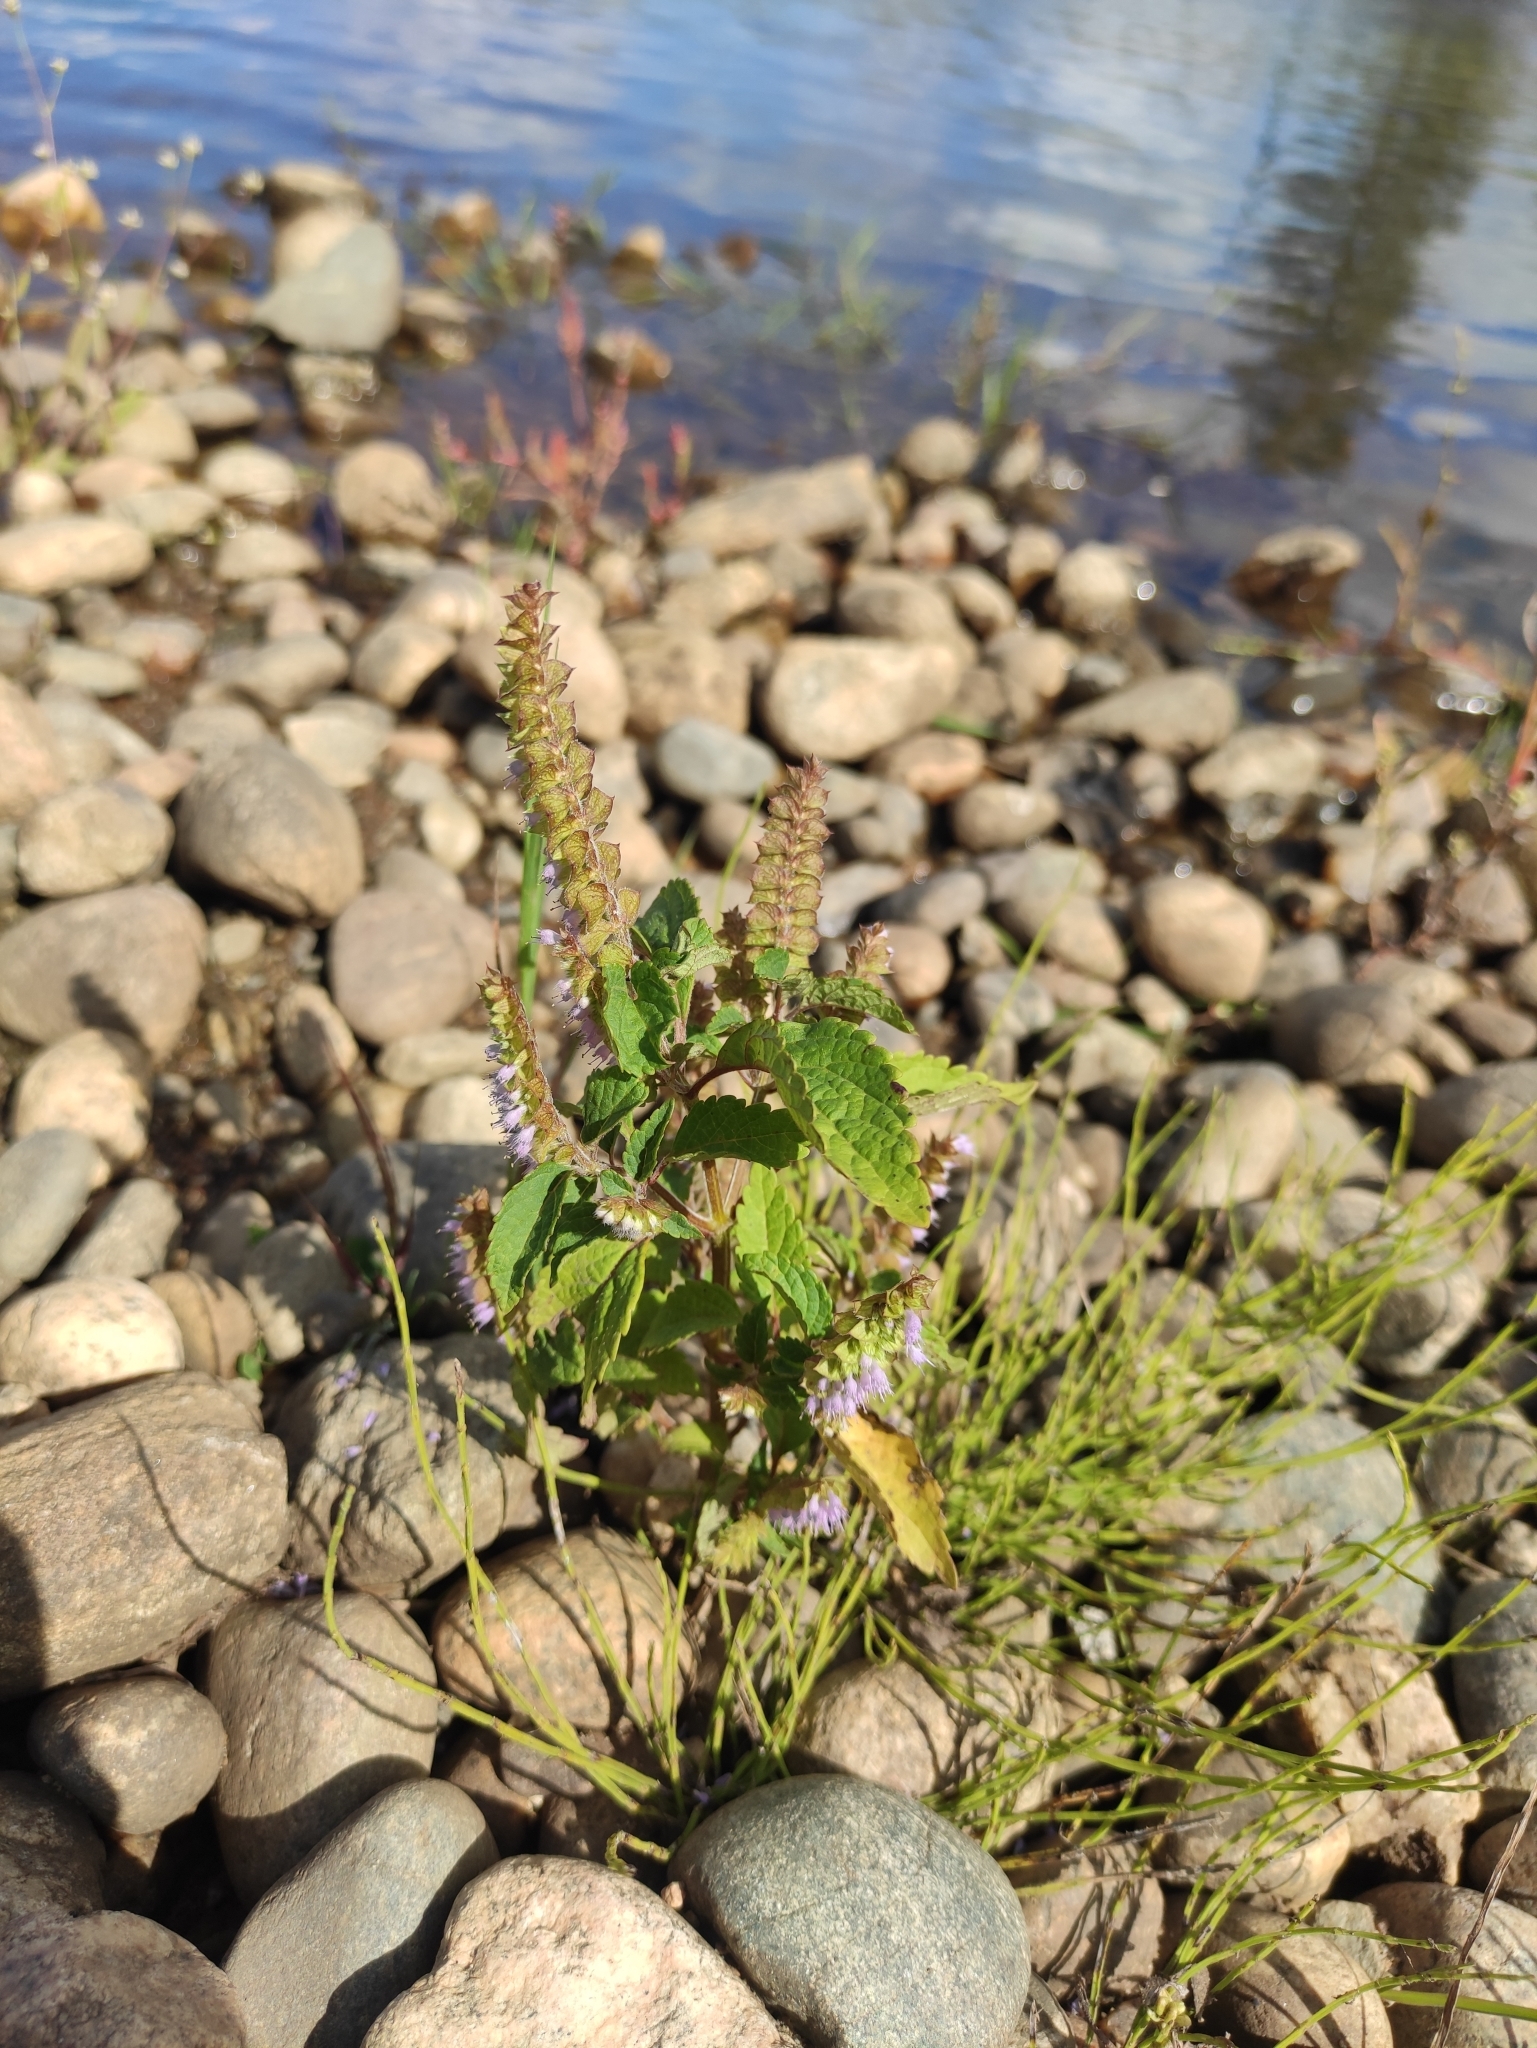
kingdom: Plantae
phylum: Tracheophyta
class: Magnoliopsida
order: Lamiales
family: Lamiaceae
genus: Elsholtzia
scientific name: Elsholtzia ciliata
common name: Ciliate elsholtzia
